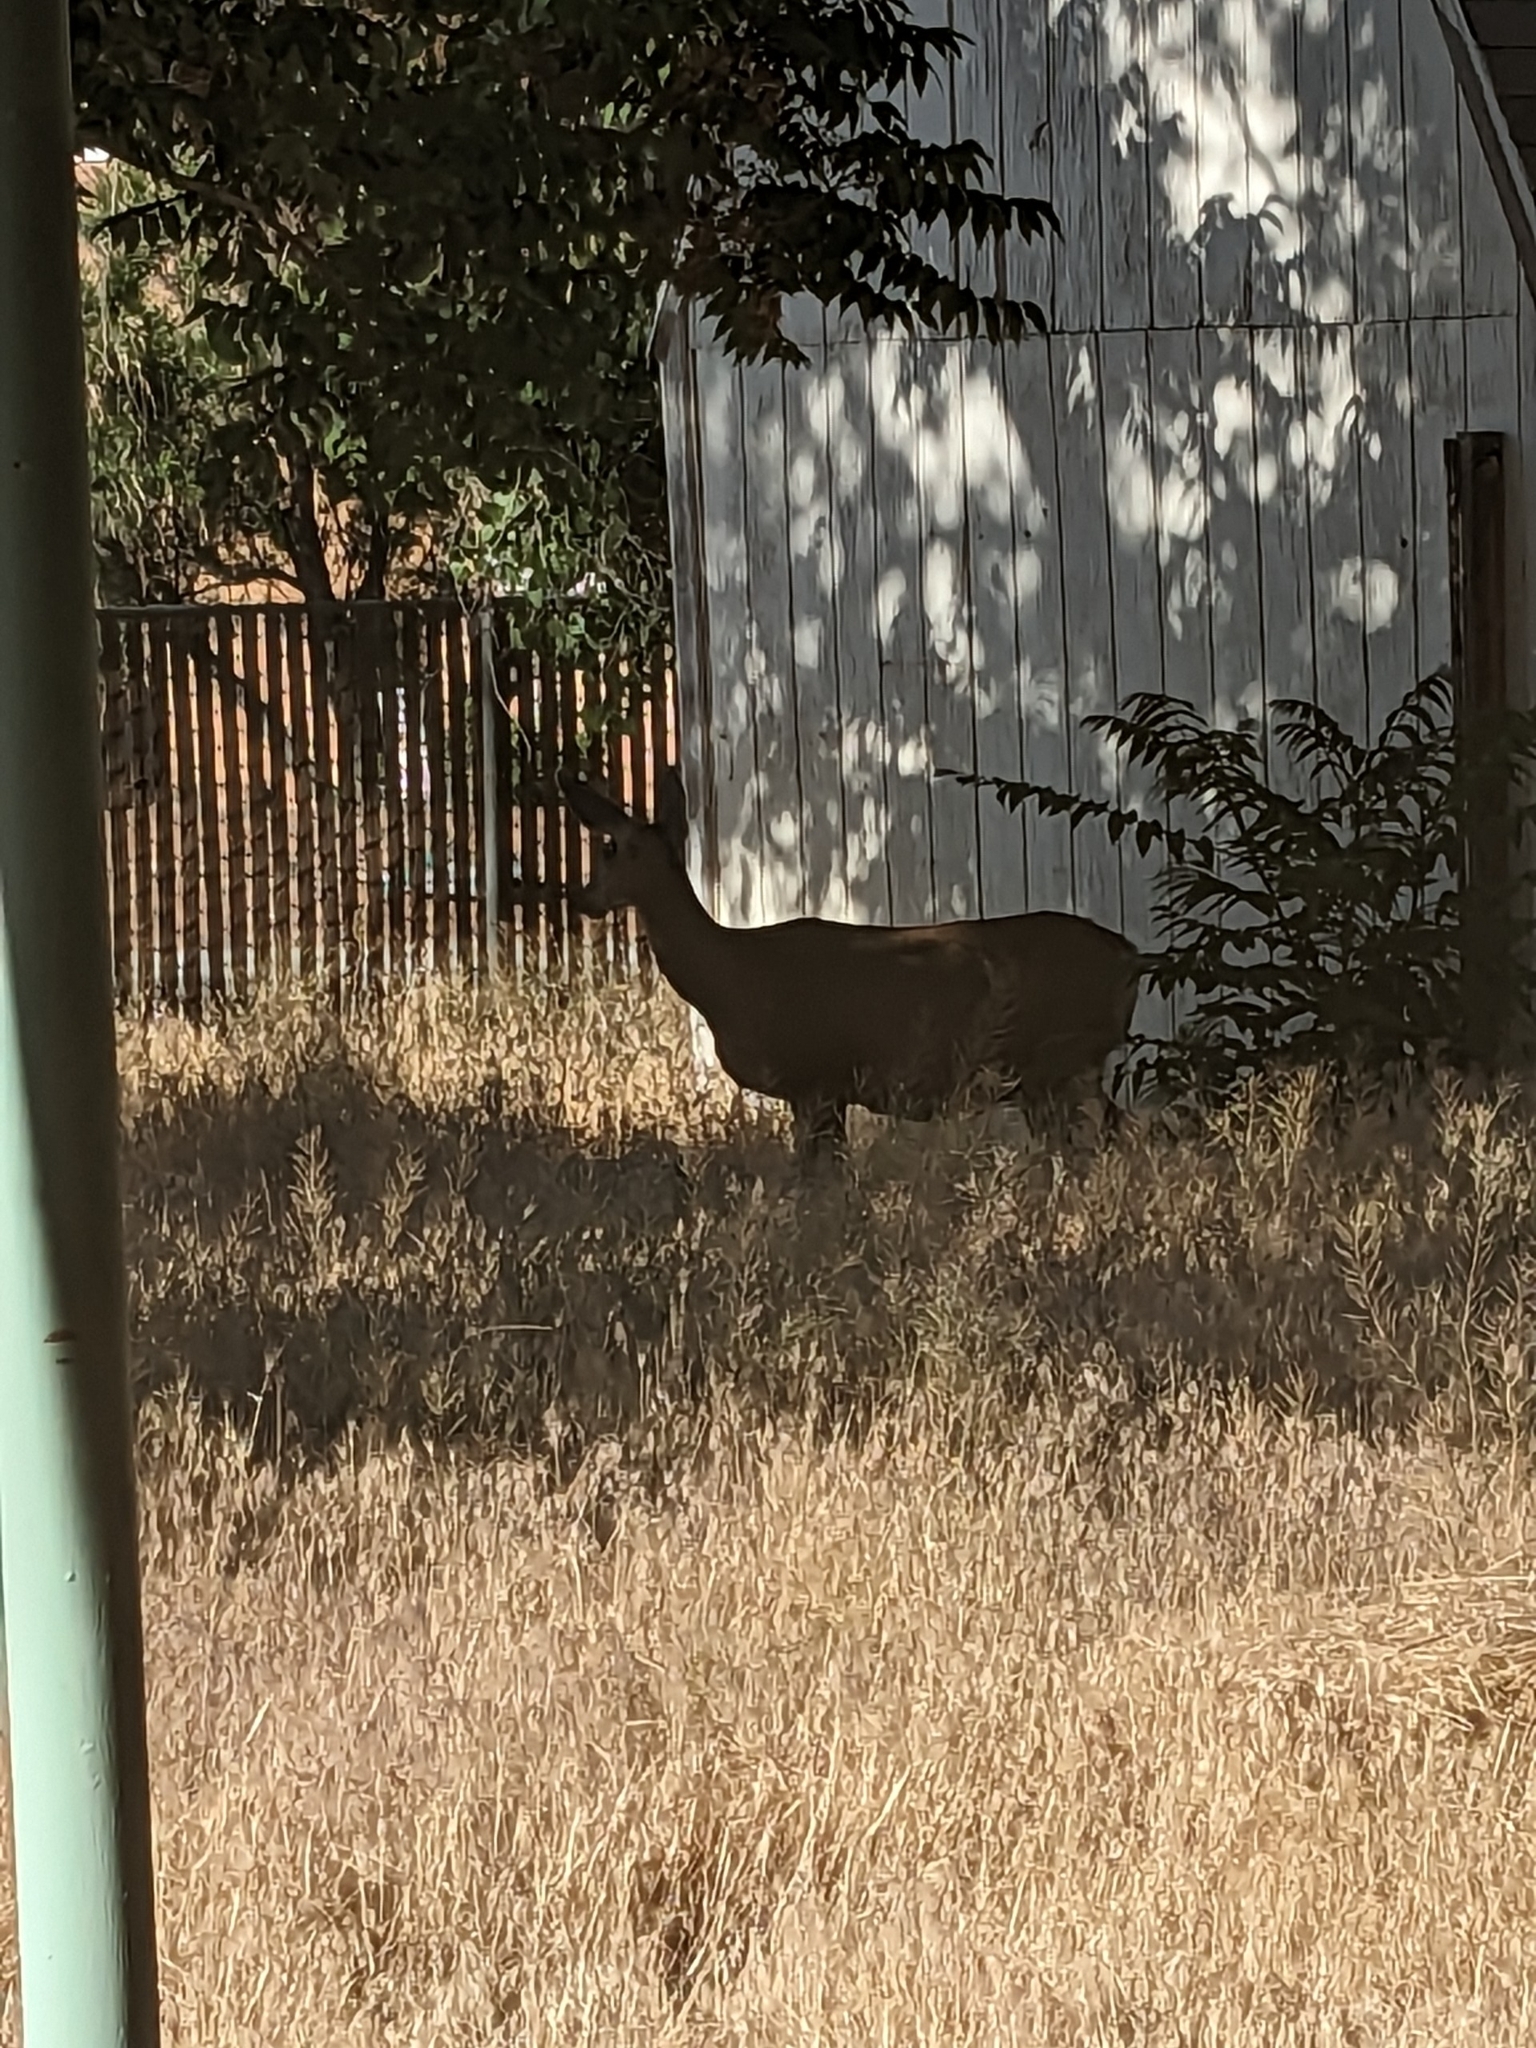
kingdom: Animalia
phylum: Chordata
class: Mammalia
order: Artiodactyla
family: Cervidae
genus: Odocoileus
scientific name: Odocoileus hemionus
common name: Mule deer
